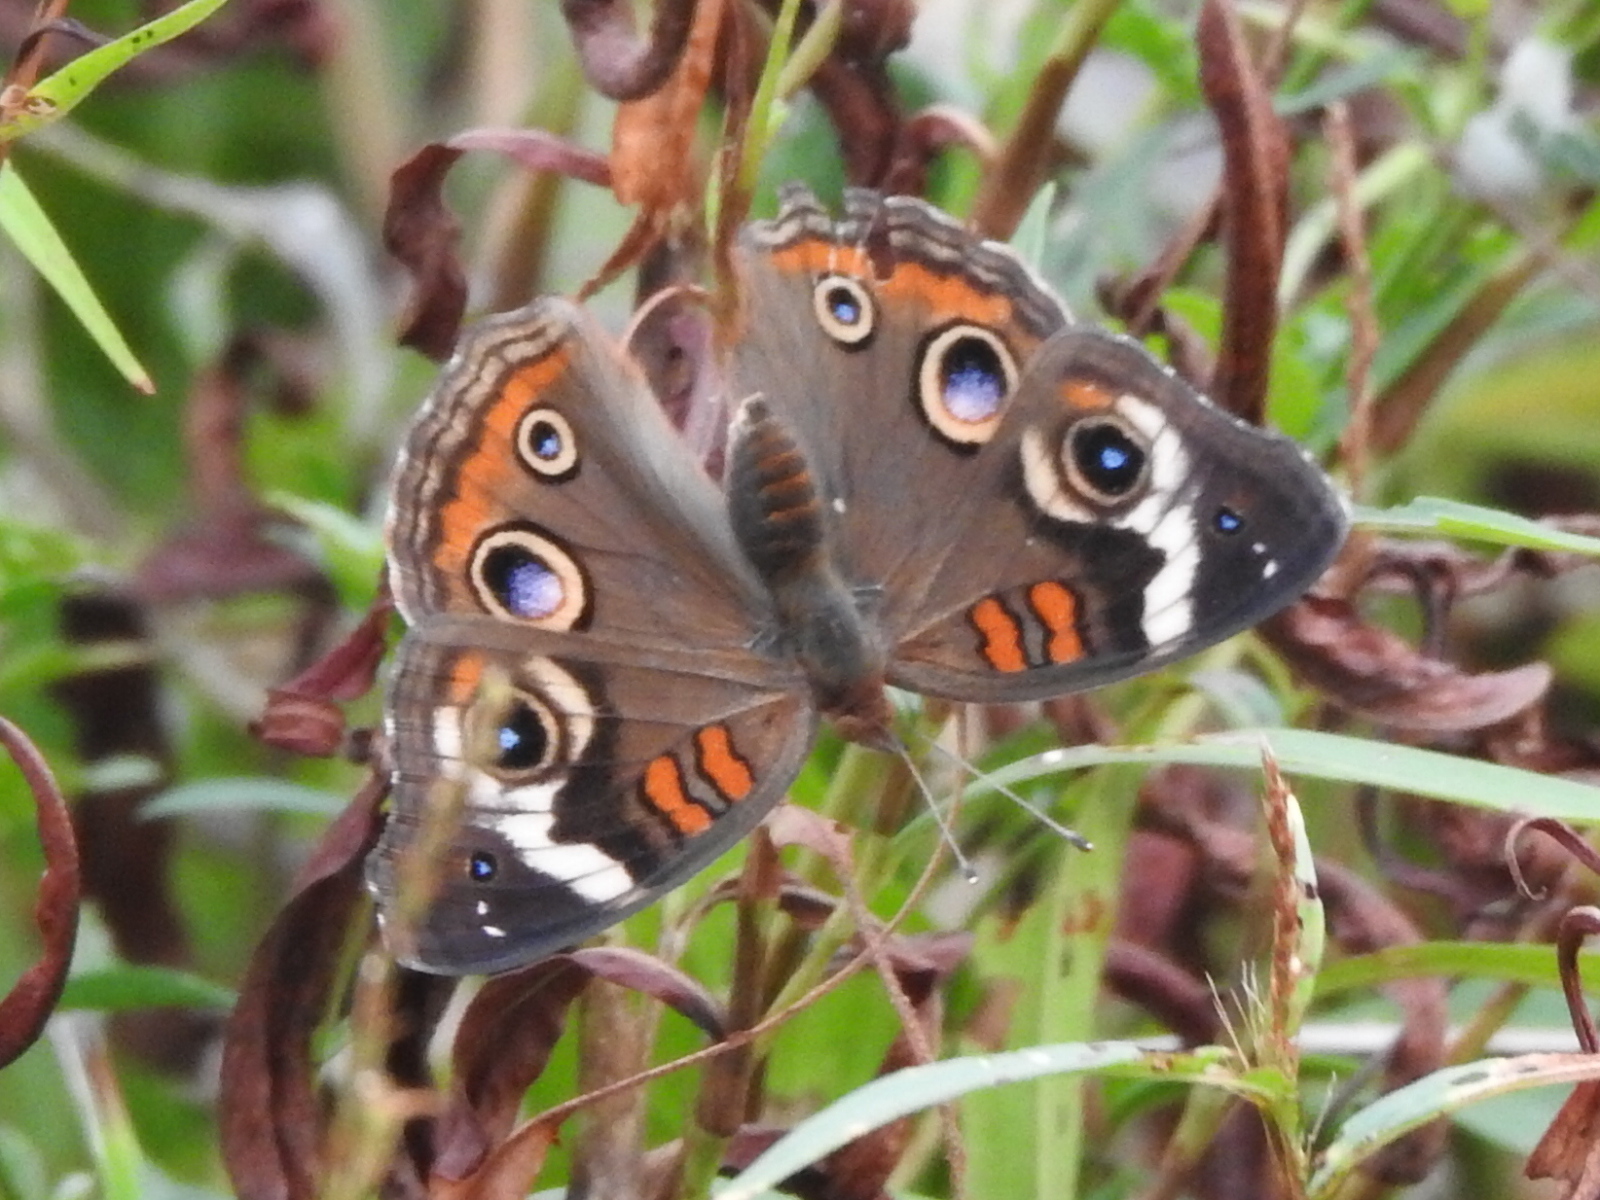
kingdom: Animalia
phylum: Arthropoda
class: Insecta
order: Lepidoptera
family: Nymphalidae
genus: Junonia
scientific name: Junonia coenia
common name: Common buckeye
